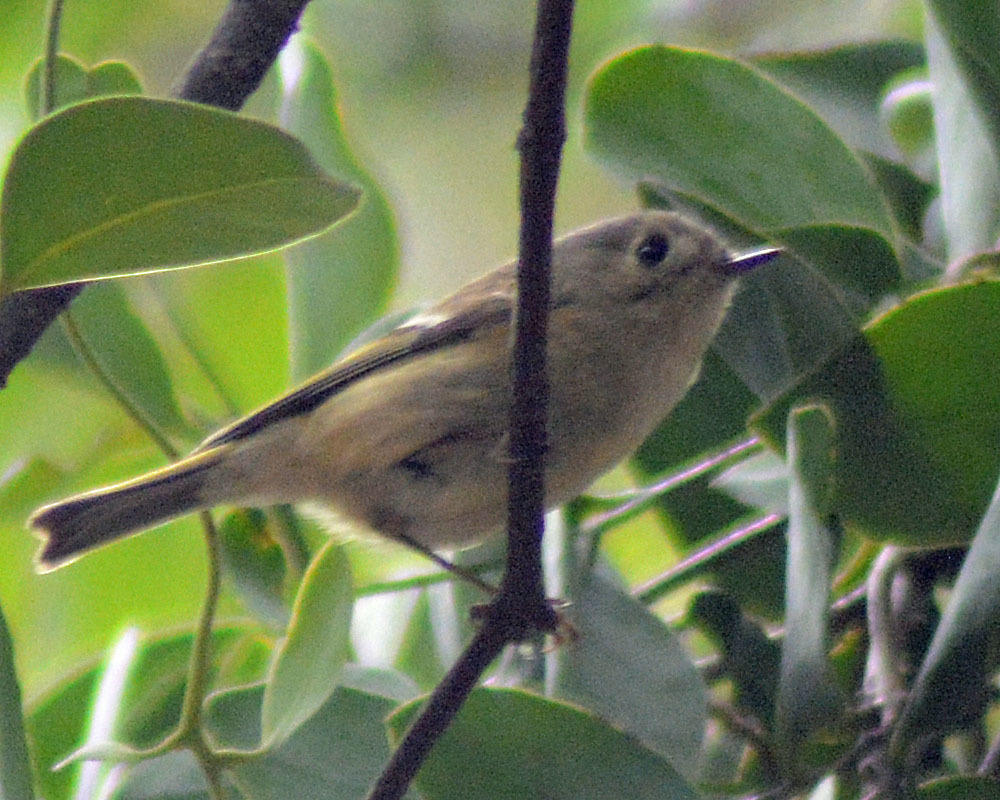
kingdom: Animalia
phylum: Chordata
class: Aves
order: Passeriformes
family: Regulidae
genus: Regulus
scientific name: Regulus calendula
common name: Ruby-crowned kinglet
